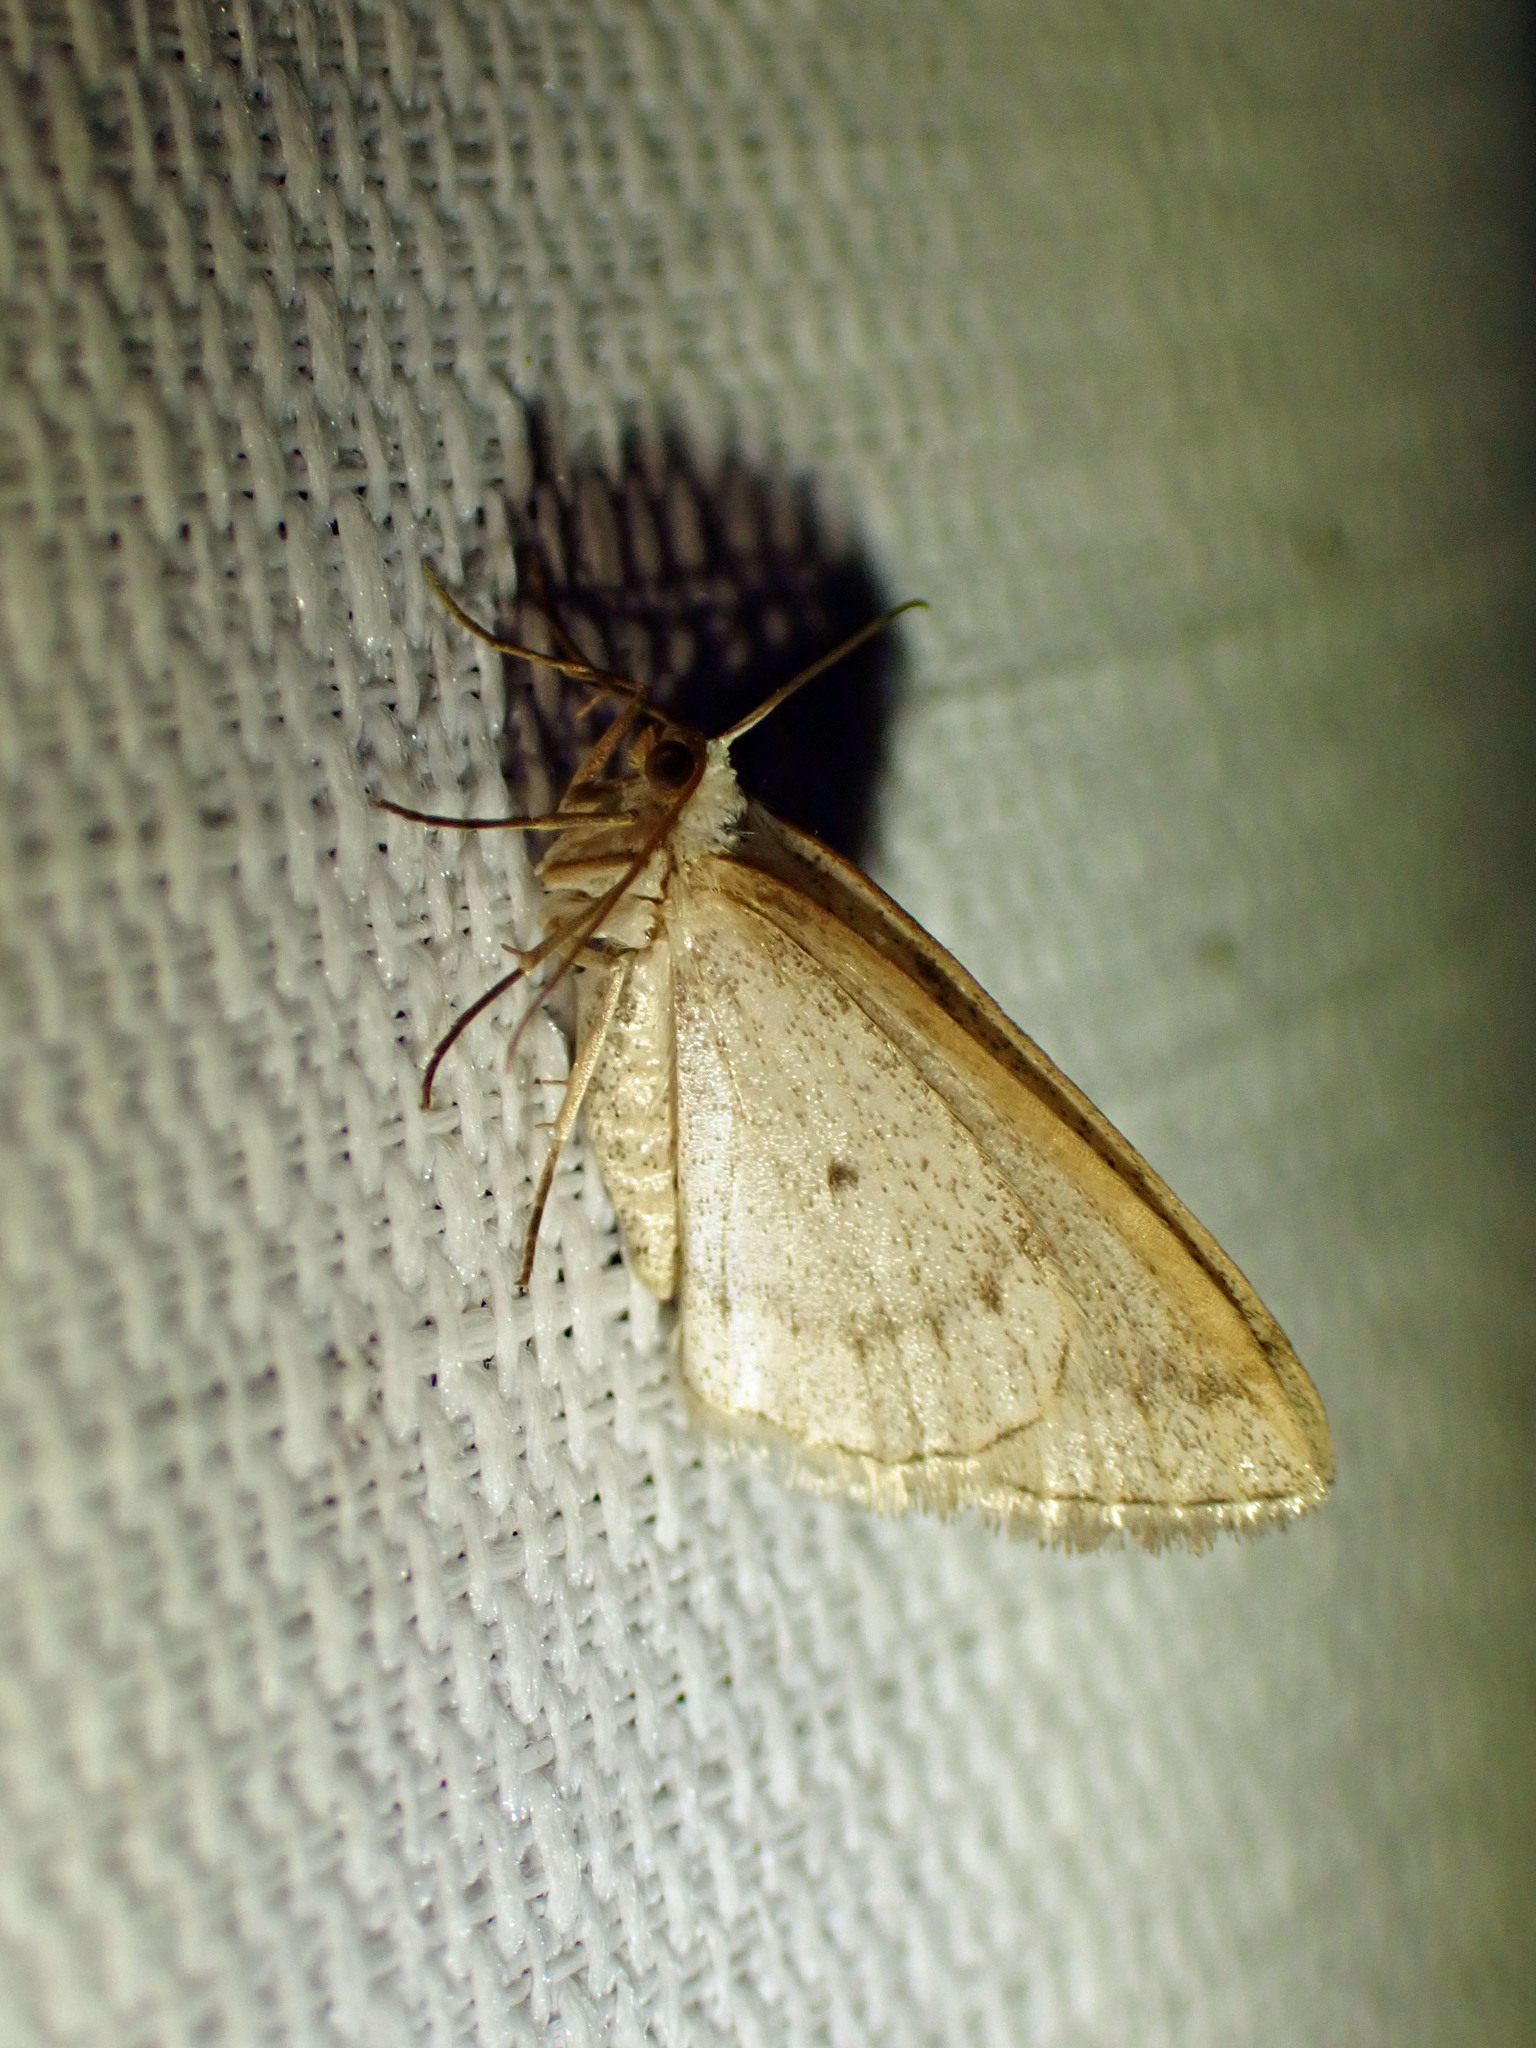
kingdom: Animalia
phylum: Arthropoda
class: Insecta
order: Lepidoptera
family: Geometridae
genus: Lomographa
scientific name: Lomographa glomeraria
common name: Gray spring moth
